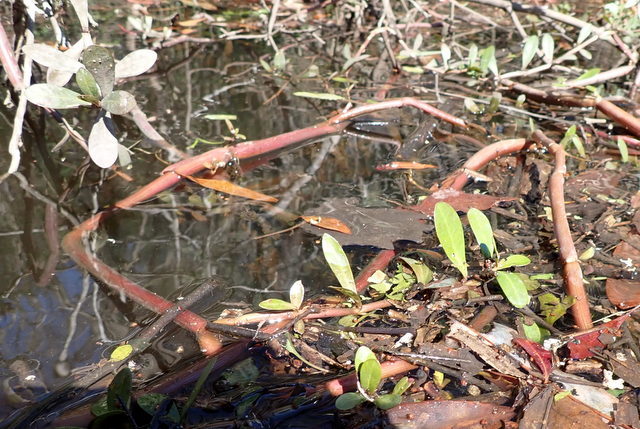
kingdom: Plantae
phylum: Tracheophyta
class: Magnoliopsida
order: Caryophyllales
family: Amaranthaceae
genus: Alternanthera
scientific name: Alternanthera philoxeroides
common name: Alligatorweed
